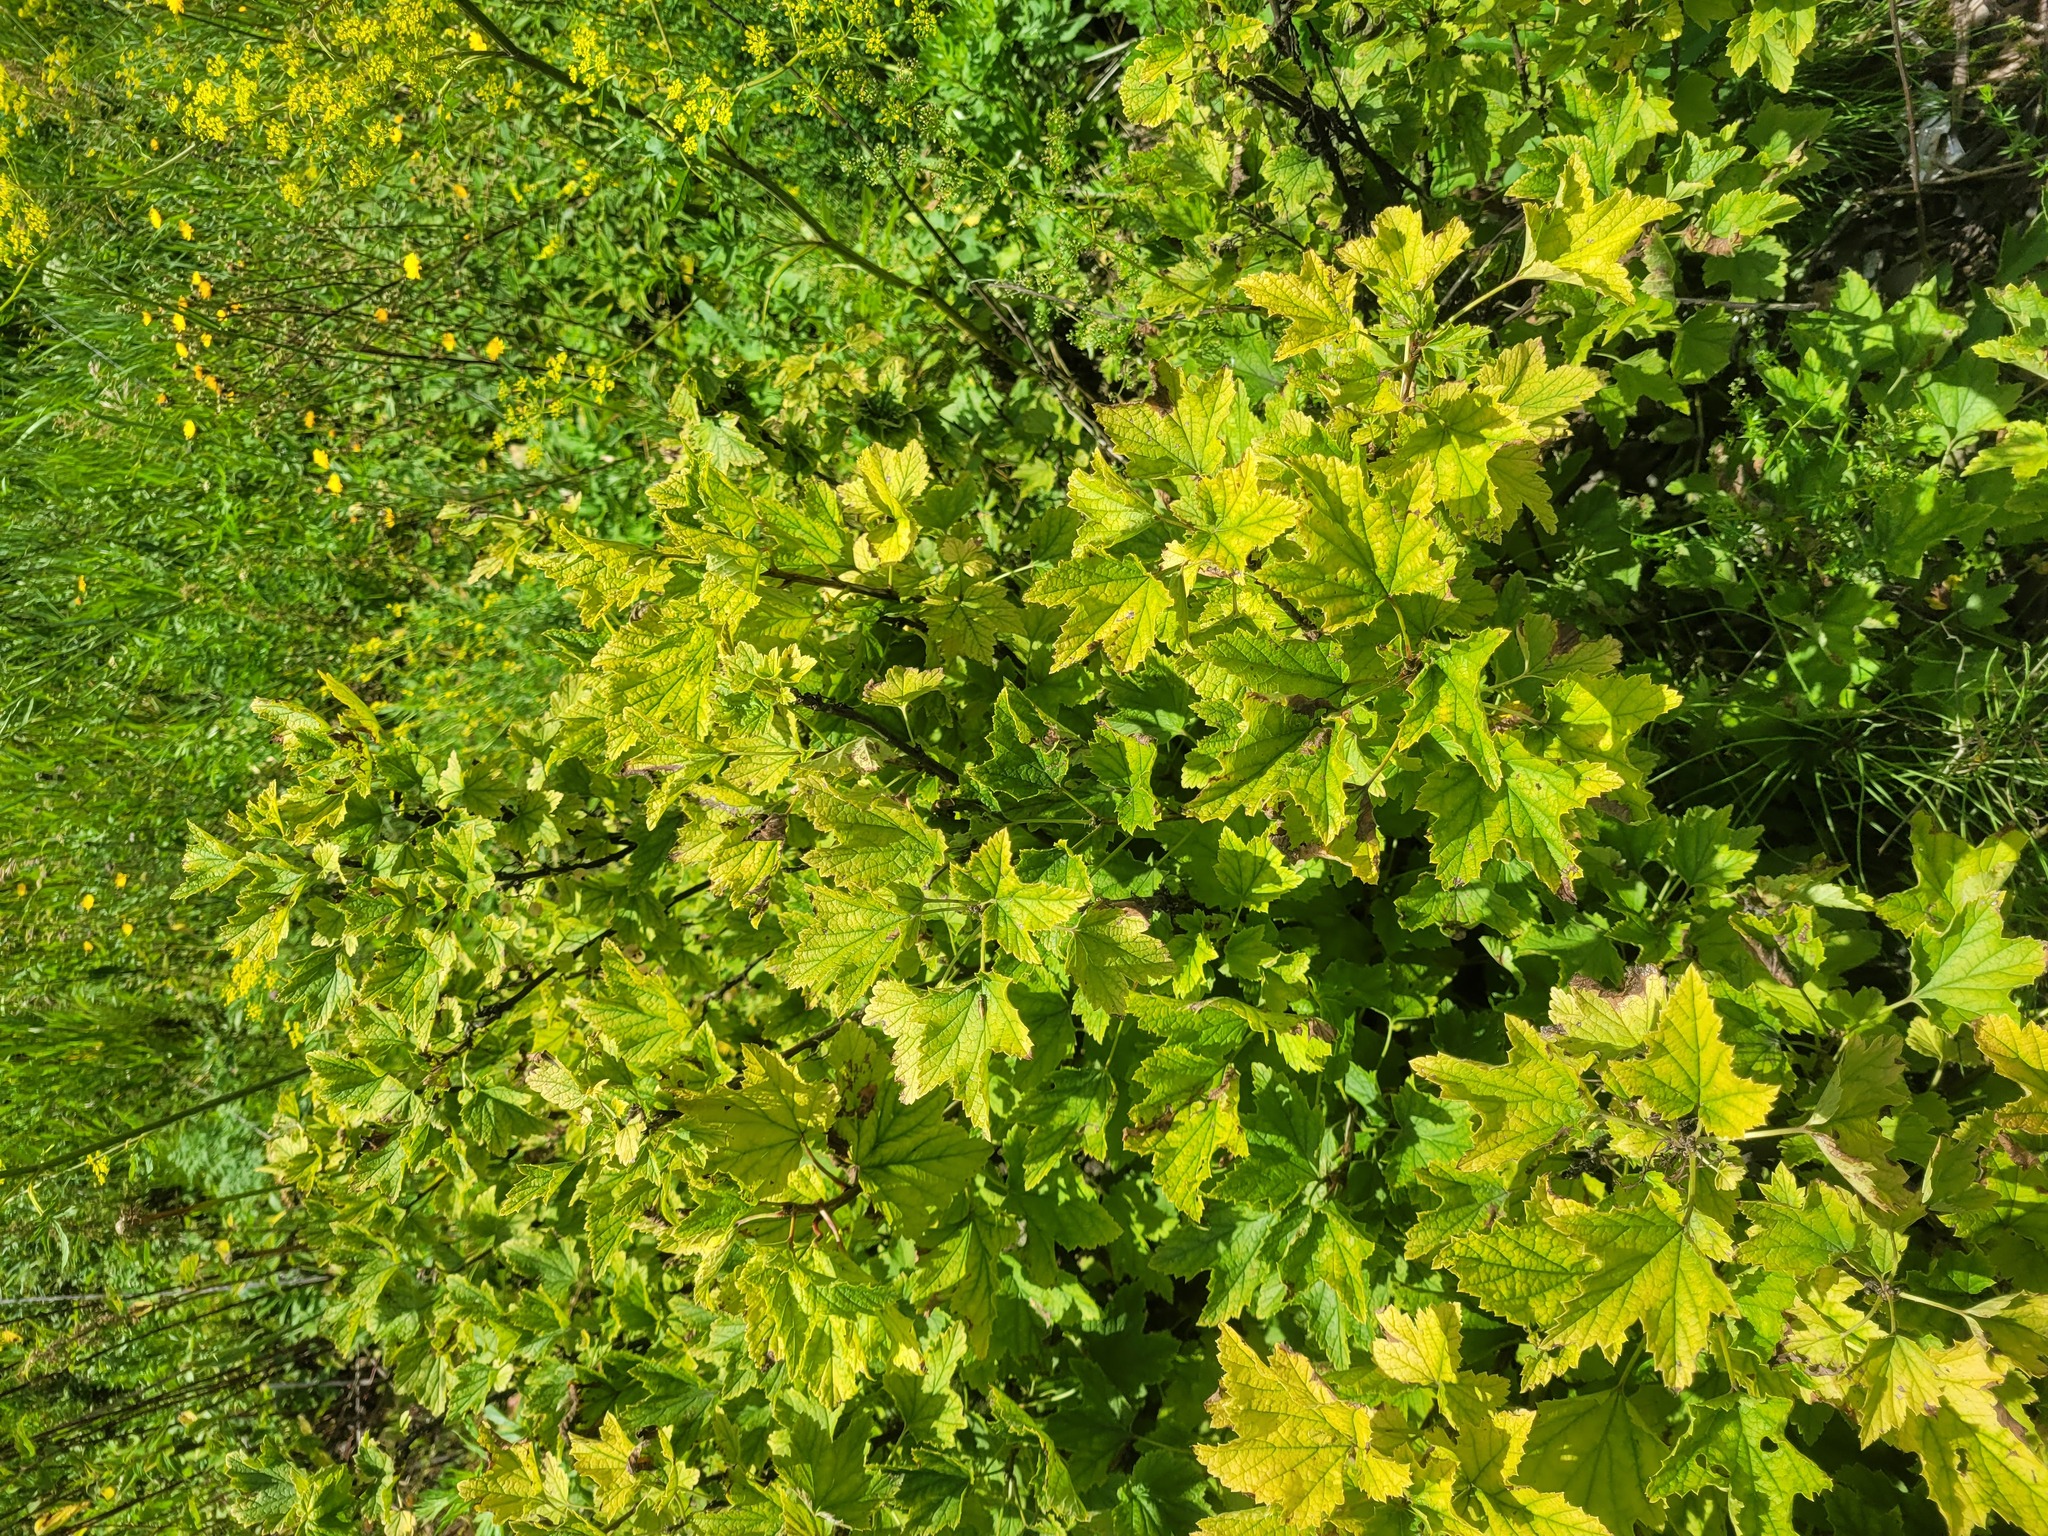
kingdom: Plantae
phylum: Tracheophyta
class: Magnoliopsida
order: Saxifragales
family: Grossulariaceae
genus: Ribes
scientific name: Ribes rubrum
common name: Red currant
